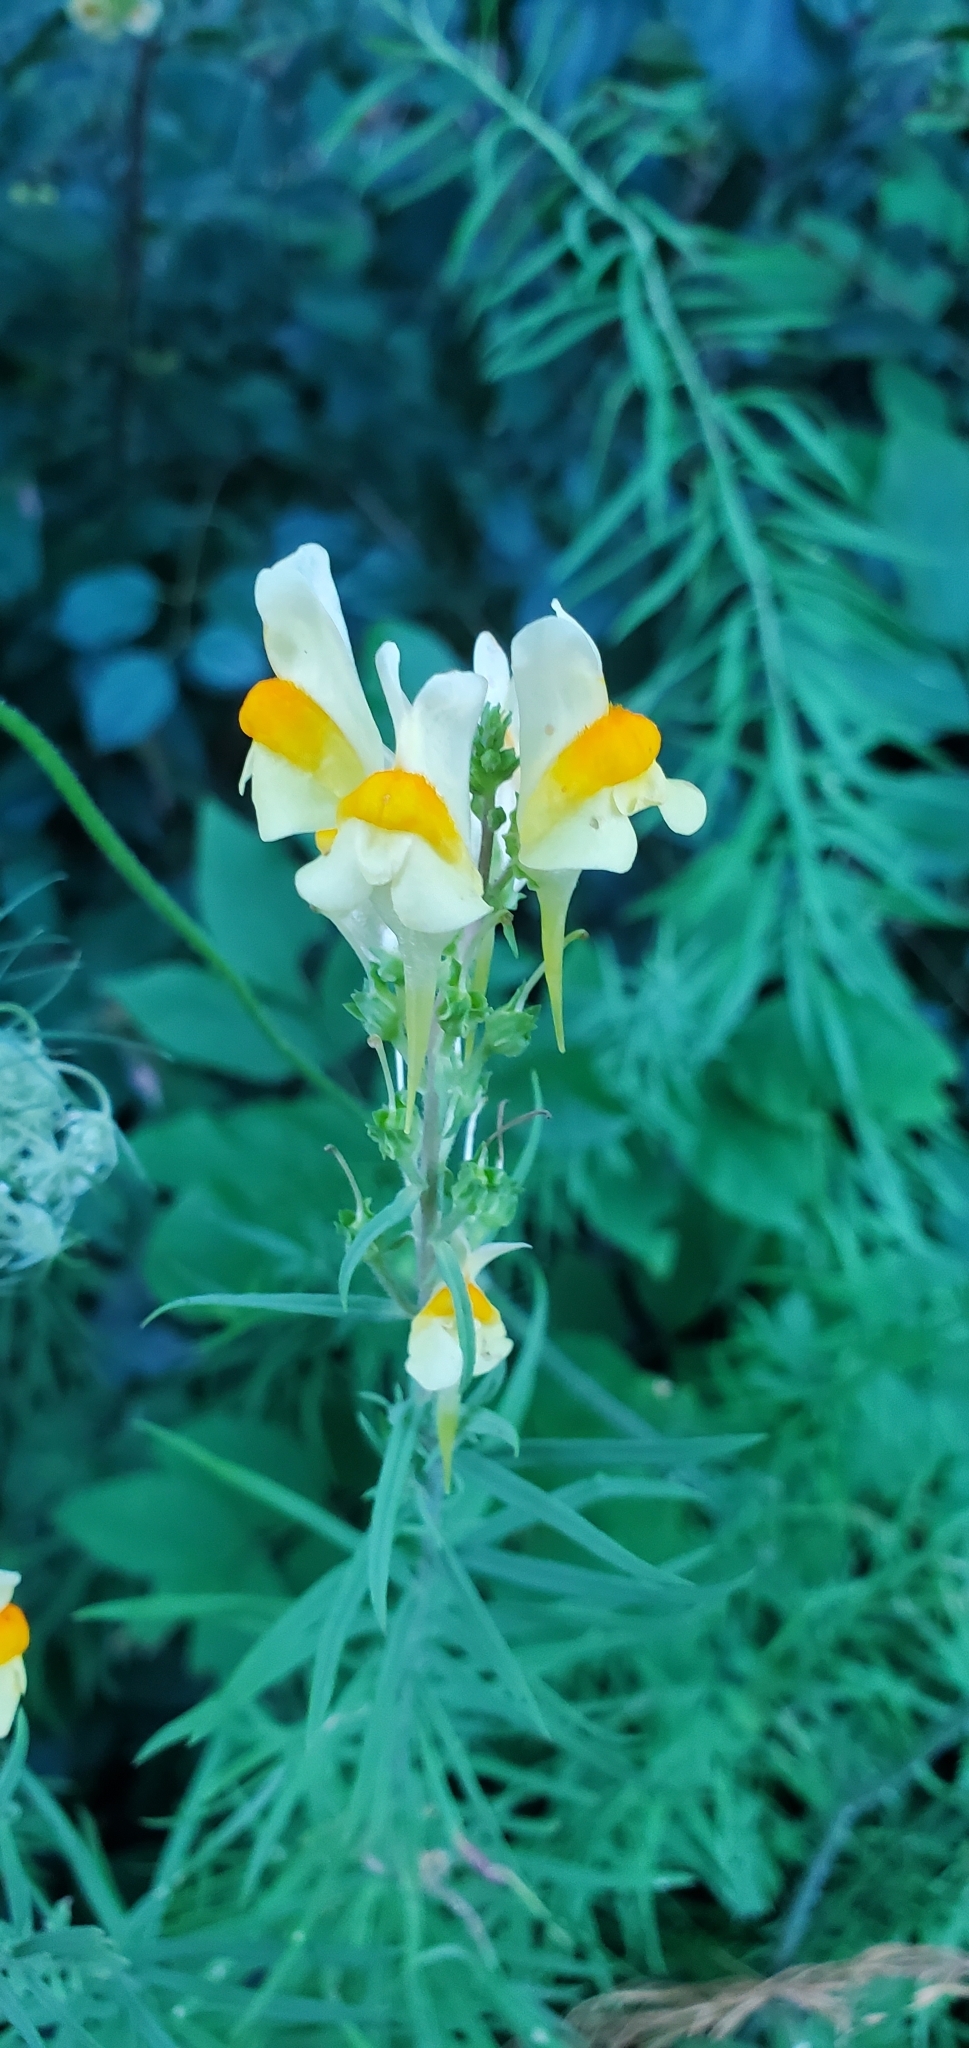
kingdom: Plantae
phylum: Tracheophyta
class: Magnoliopsida
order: Lamiales
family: Plantaginaceae
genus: Linaria
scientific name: Linaria vulgaris
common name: Butter and eggs
